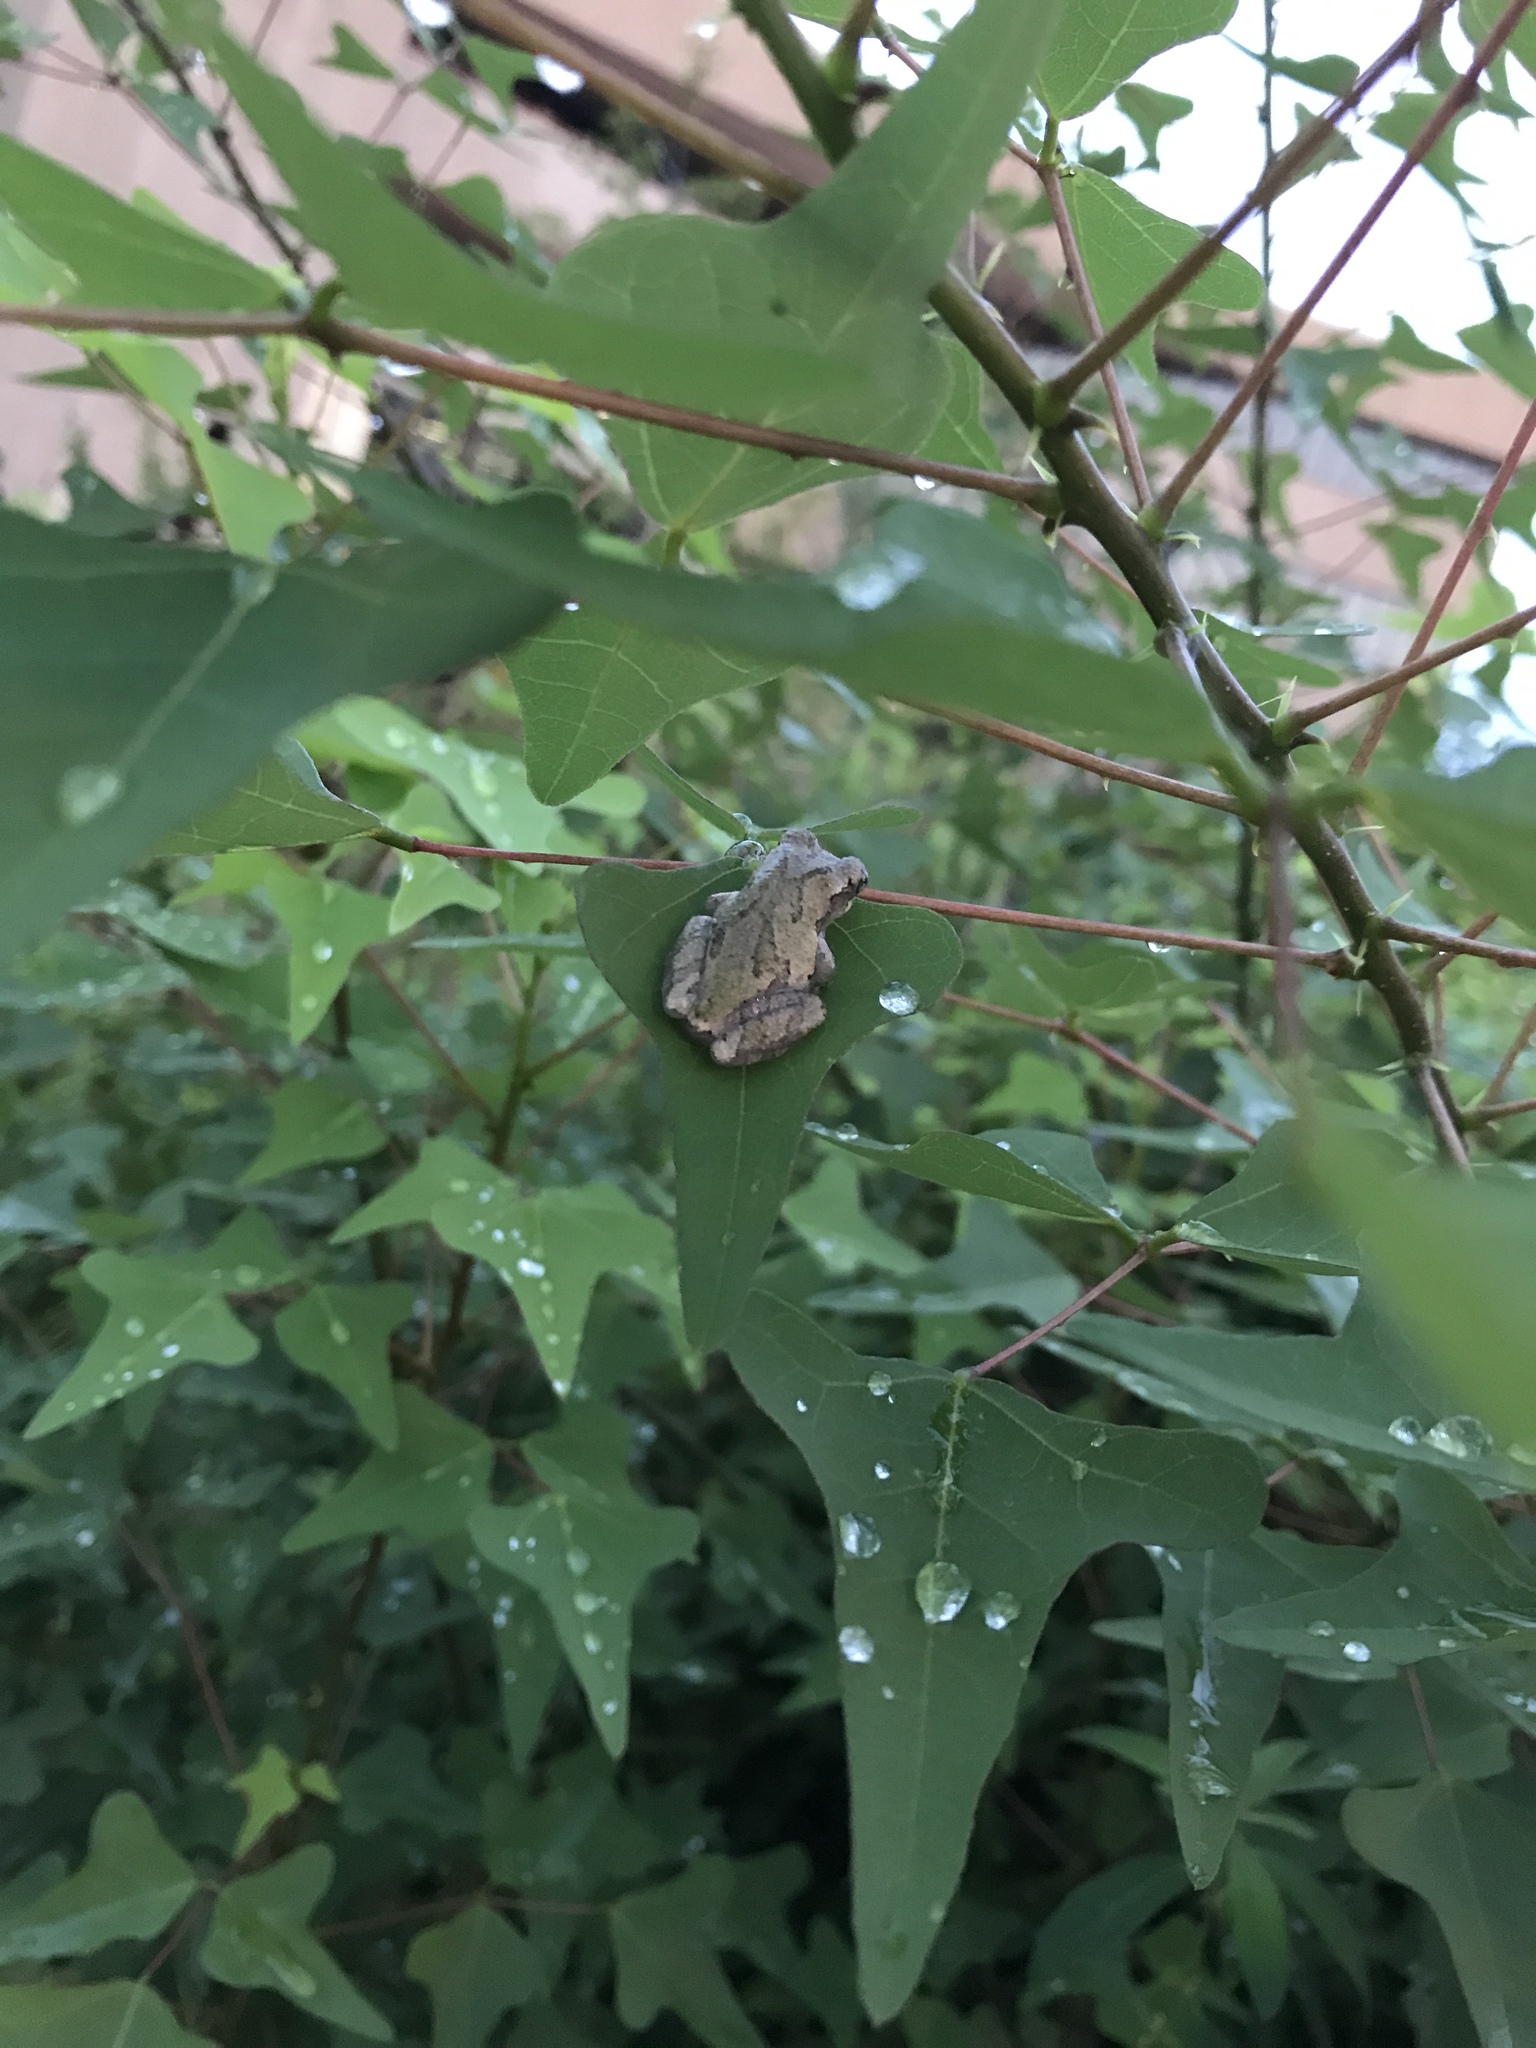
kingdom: Animalia
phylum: Chordata
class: Amphibia
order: Anura
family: Hylidae
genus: Dryophytes
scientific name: Dryophytes chrysoscelis
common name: Cope's gray treefrog
